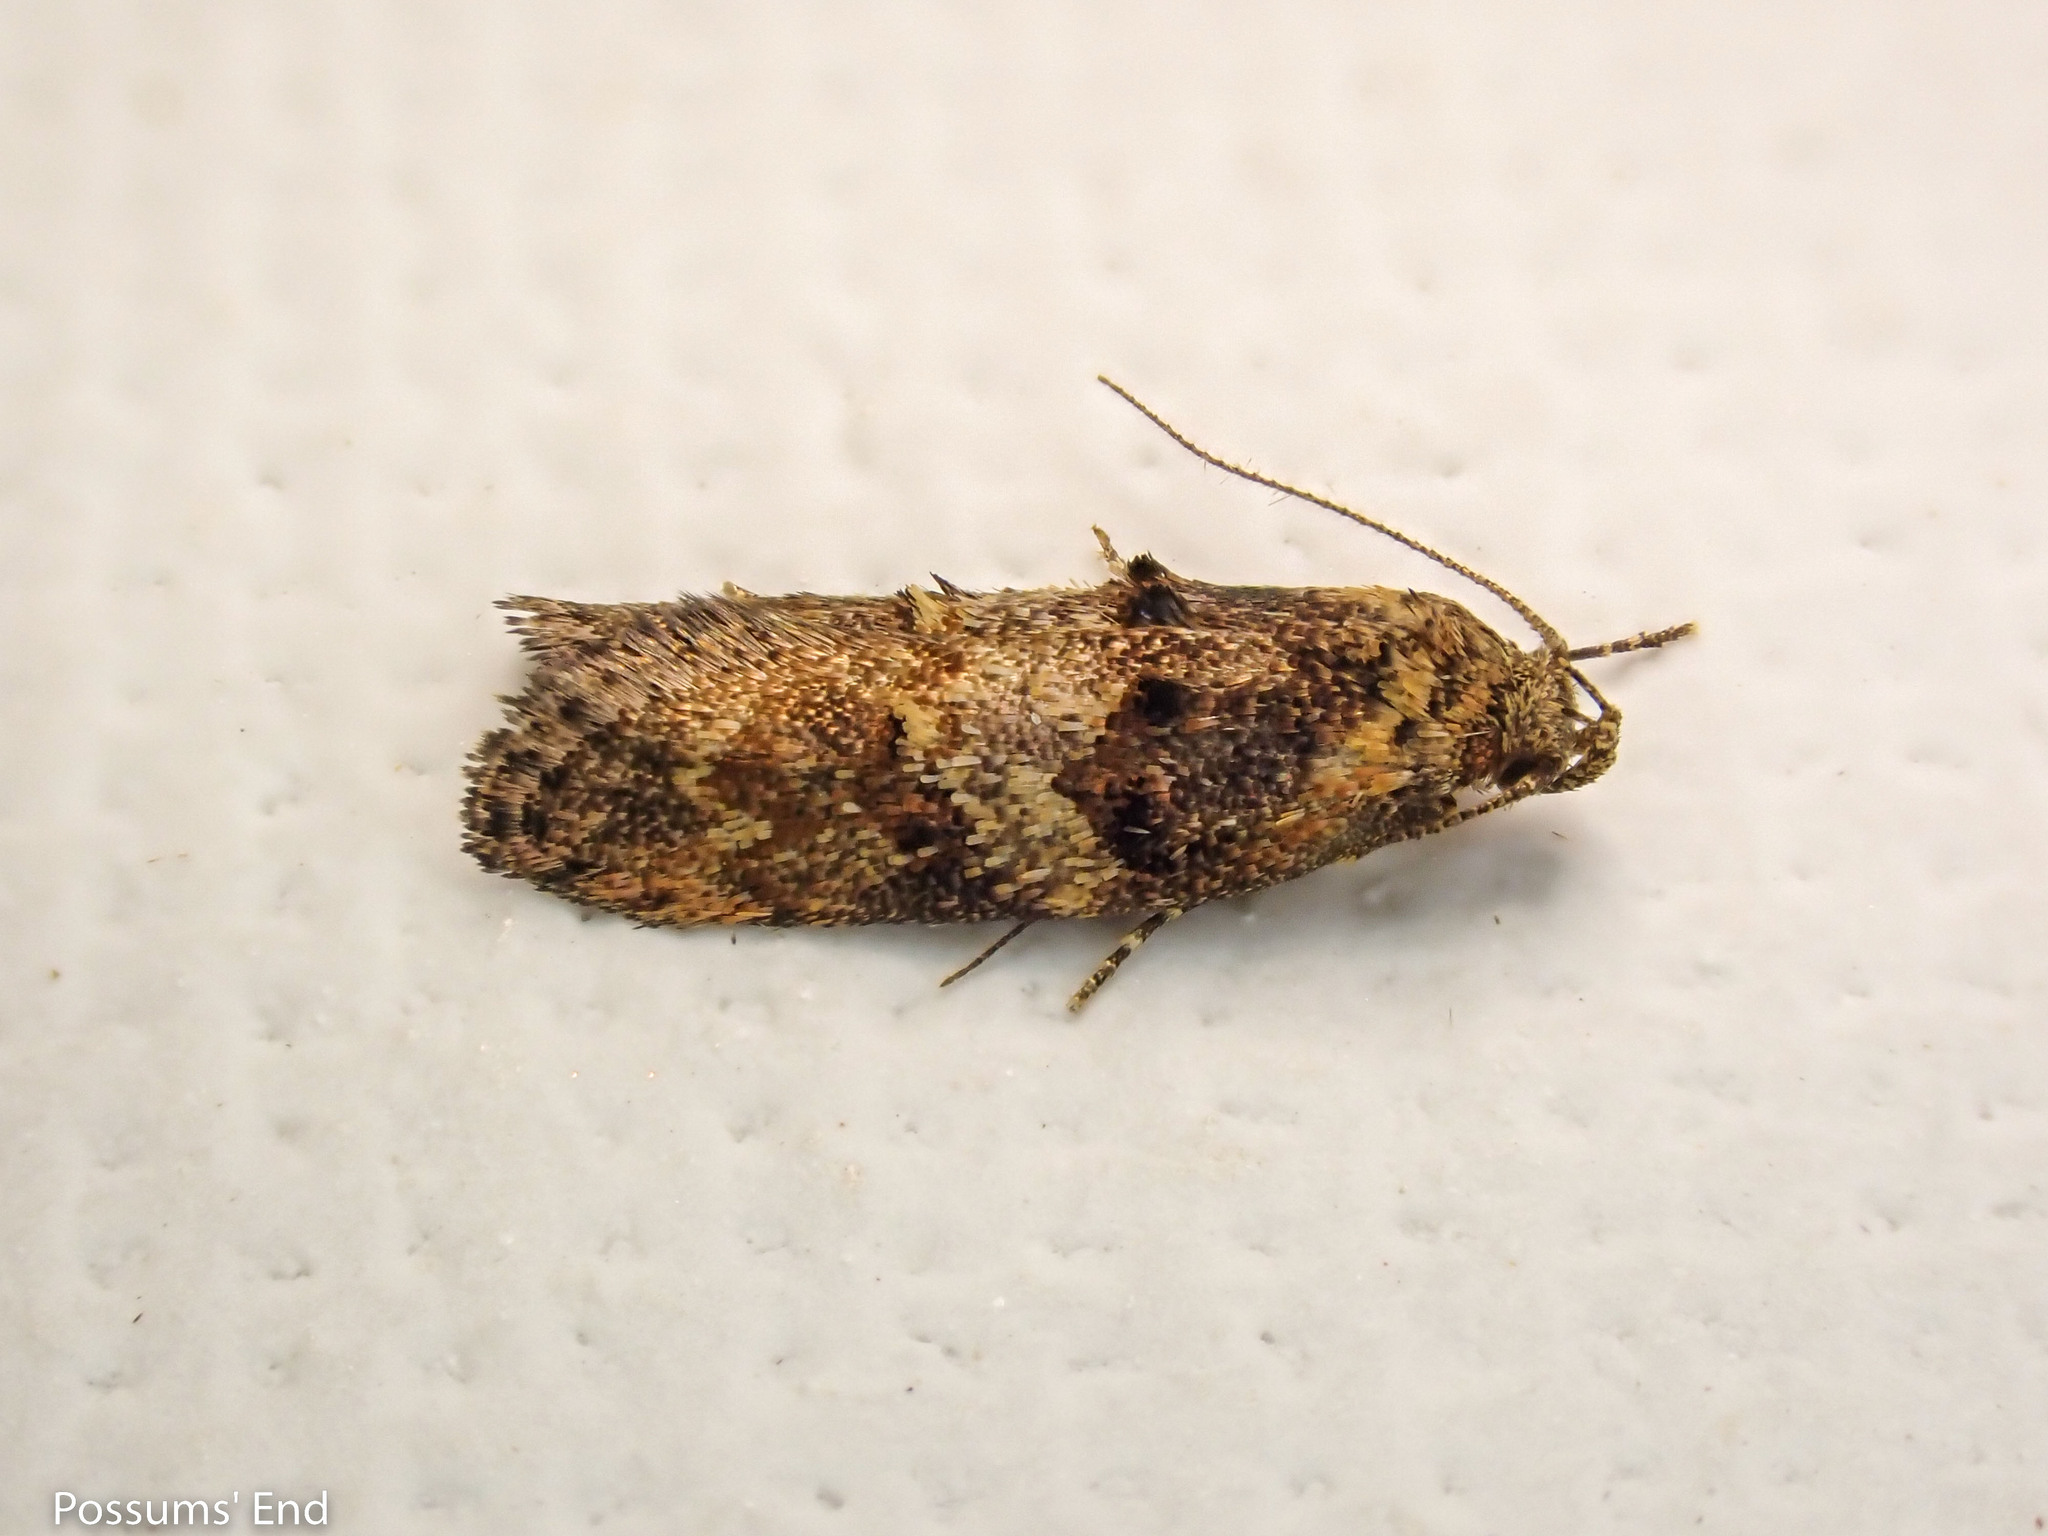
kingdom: Animalia
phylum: Arthropoda
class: Insecta
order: Lepidoptera
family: Oecophoridae
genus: Trachypepla
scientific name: Trachypepla anastrella
